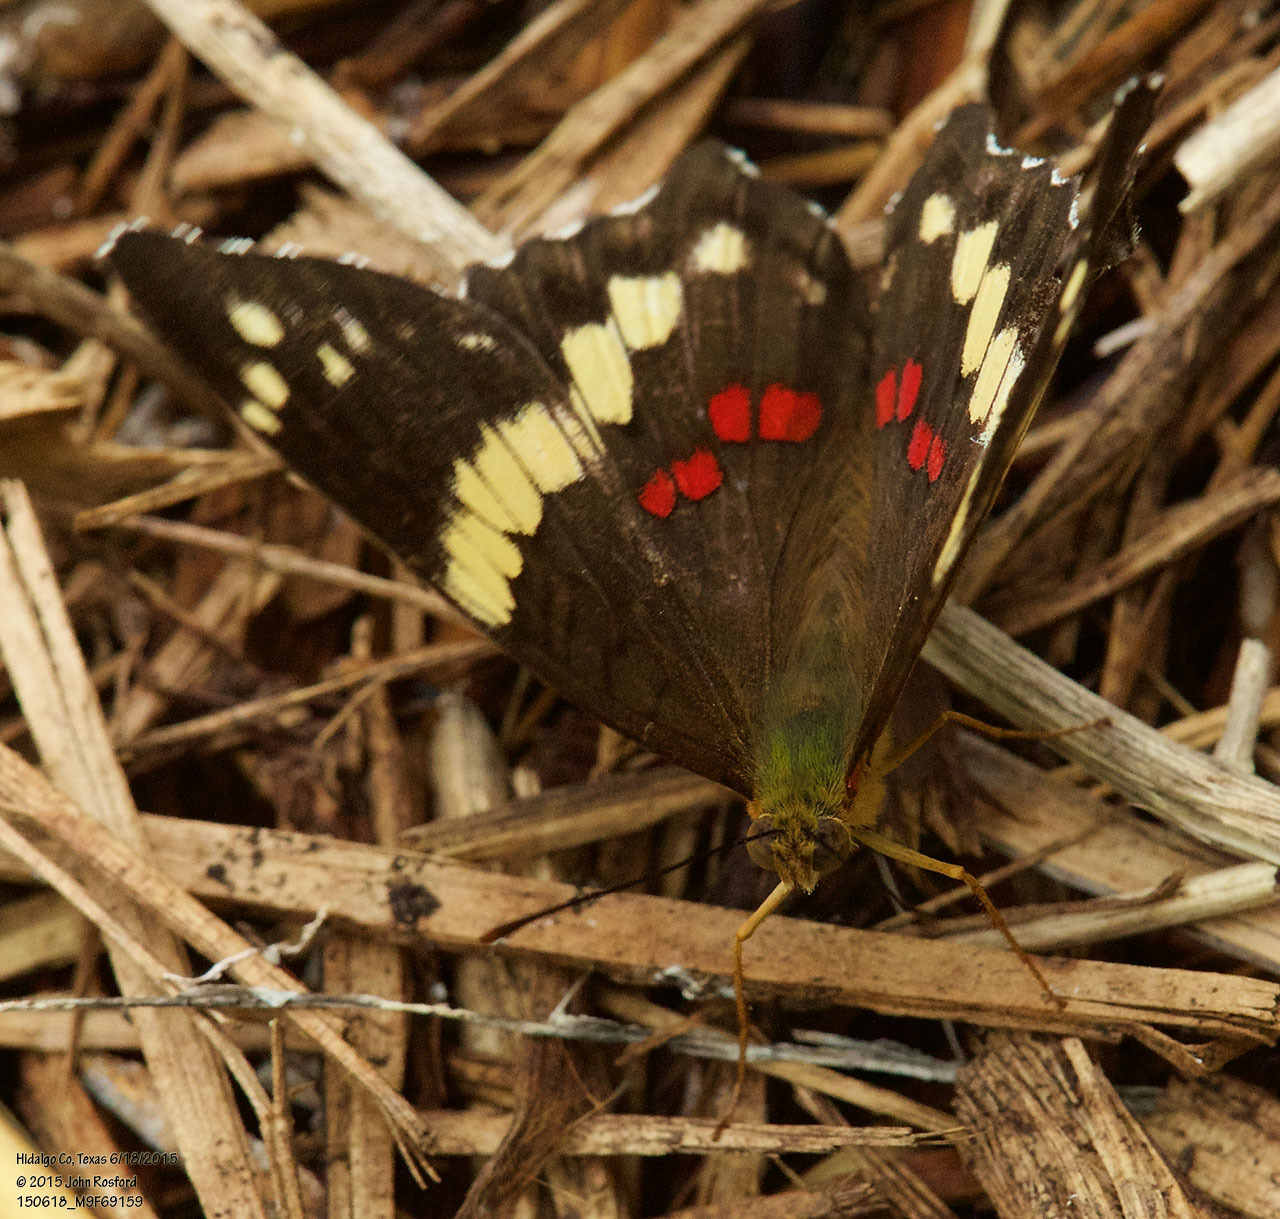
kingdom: Animalia
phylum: Arthropoda
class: Insecta
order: Lepidoptera
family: Nymphalidae
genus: Anartia
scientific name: Anartia fatima
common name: Banded peacock
